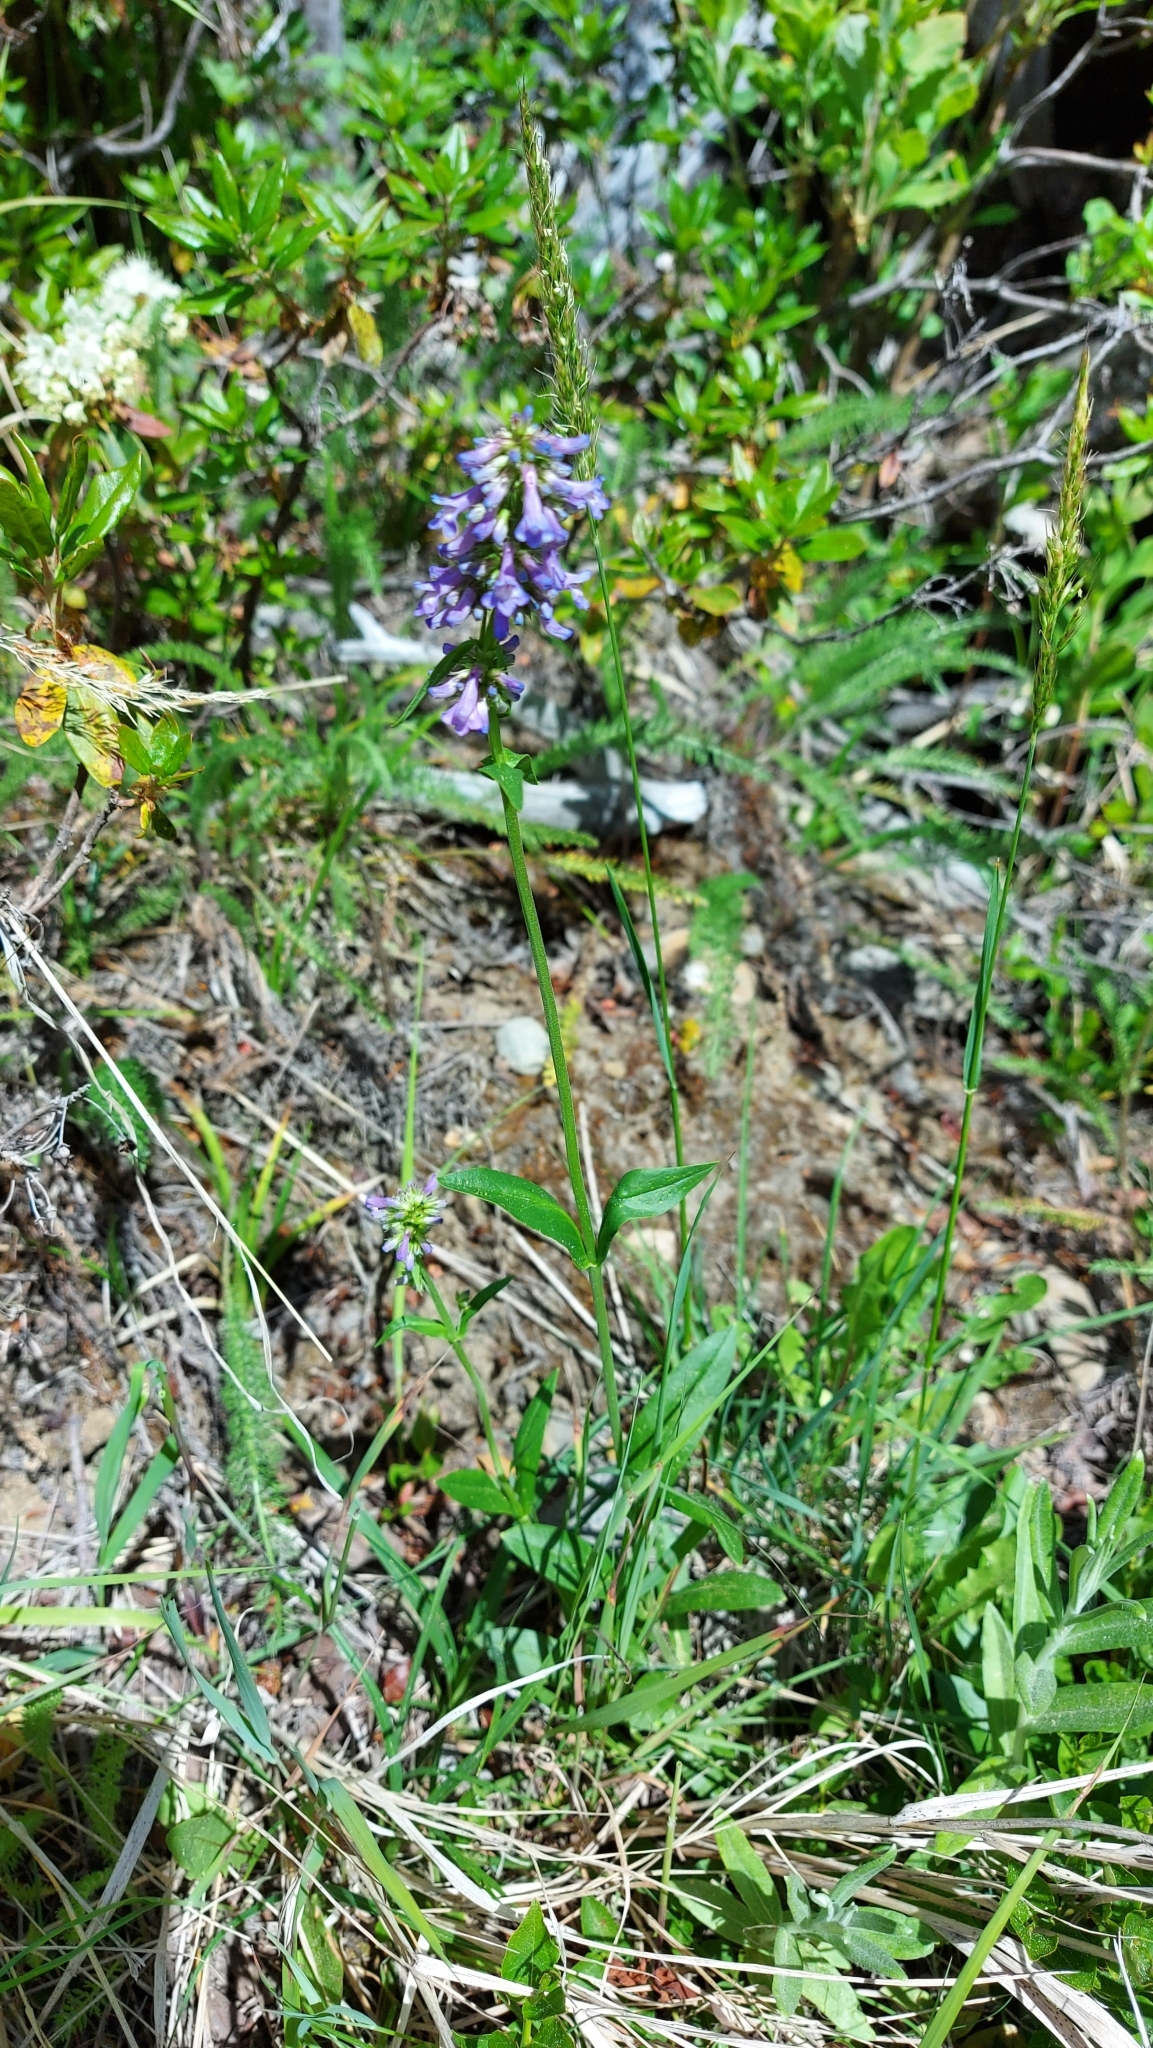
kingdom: Plantae
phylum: Tracheophyta
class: Magnoliopsida
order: Lamiales
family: Plantaginaceae
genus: Penstemon
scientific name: Penstemon procerus
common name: Small-flower penstemon
